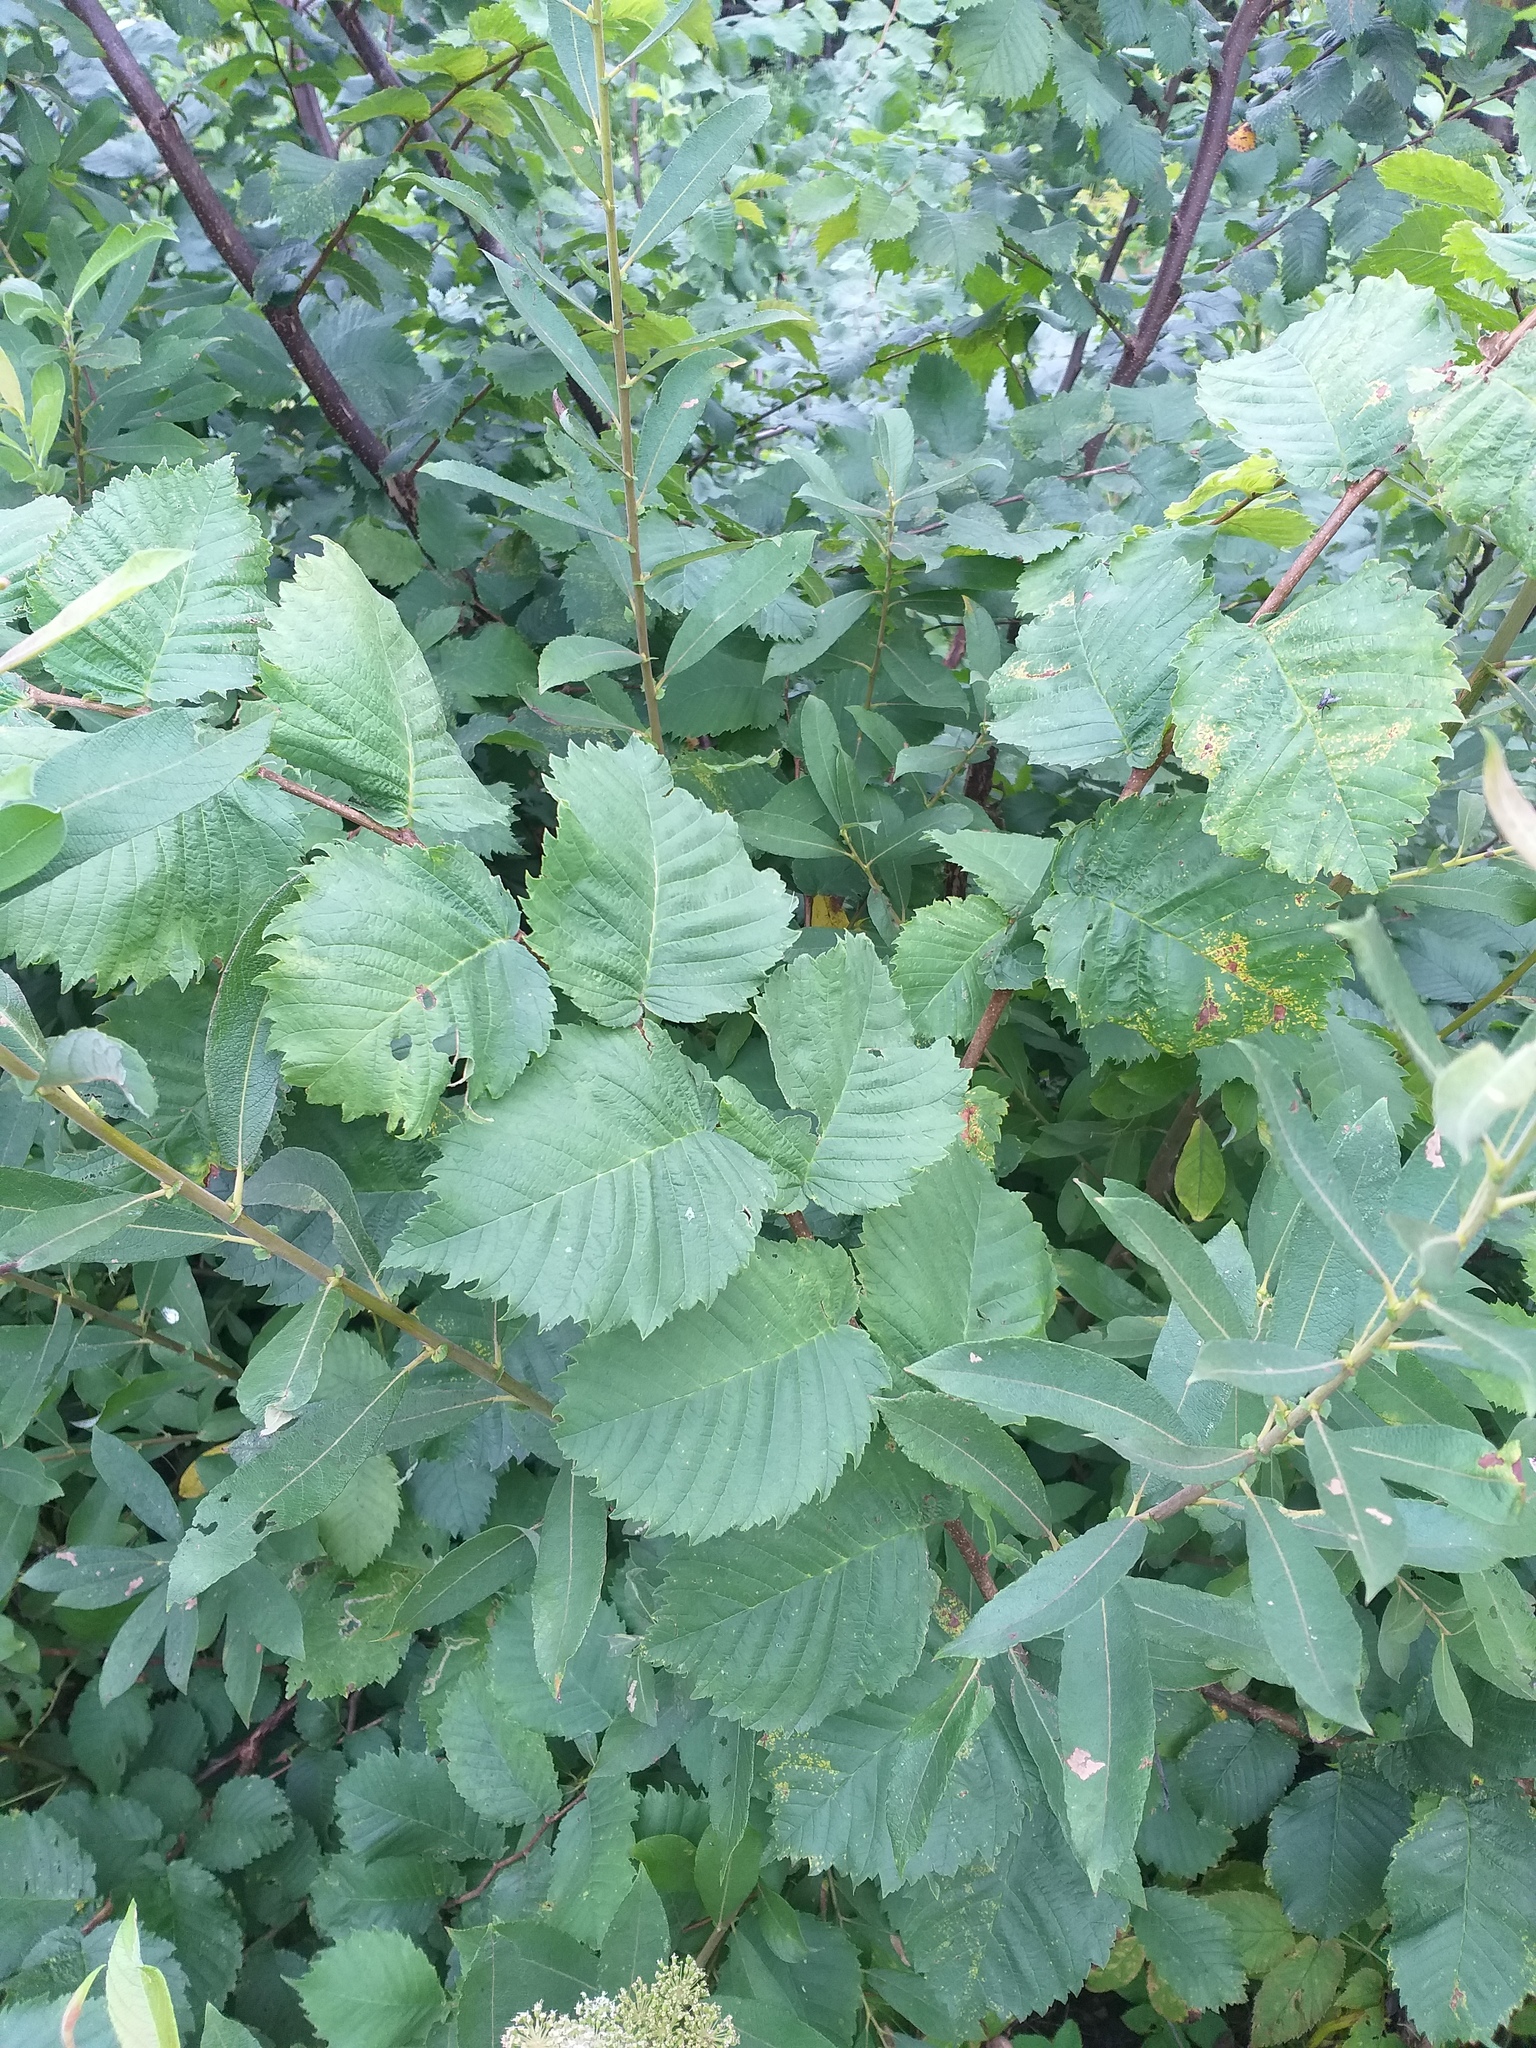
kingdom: Plantae
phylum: Tracheophyta
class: Magnoliopsida
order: Rosales
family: Ulmaceae
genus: Ulmus
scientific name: Ulmus laevis
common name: European white-elm
